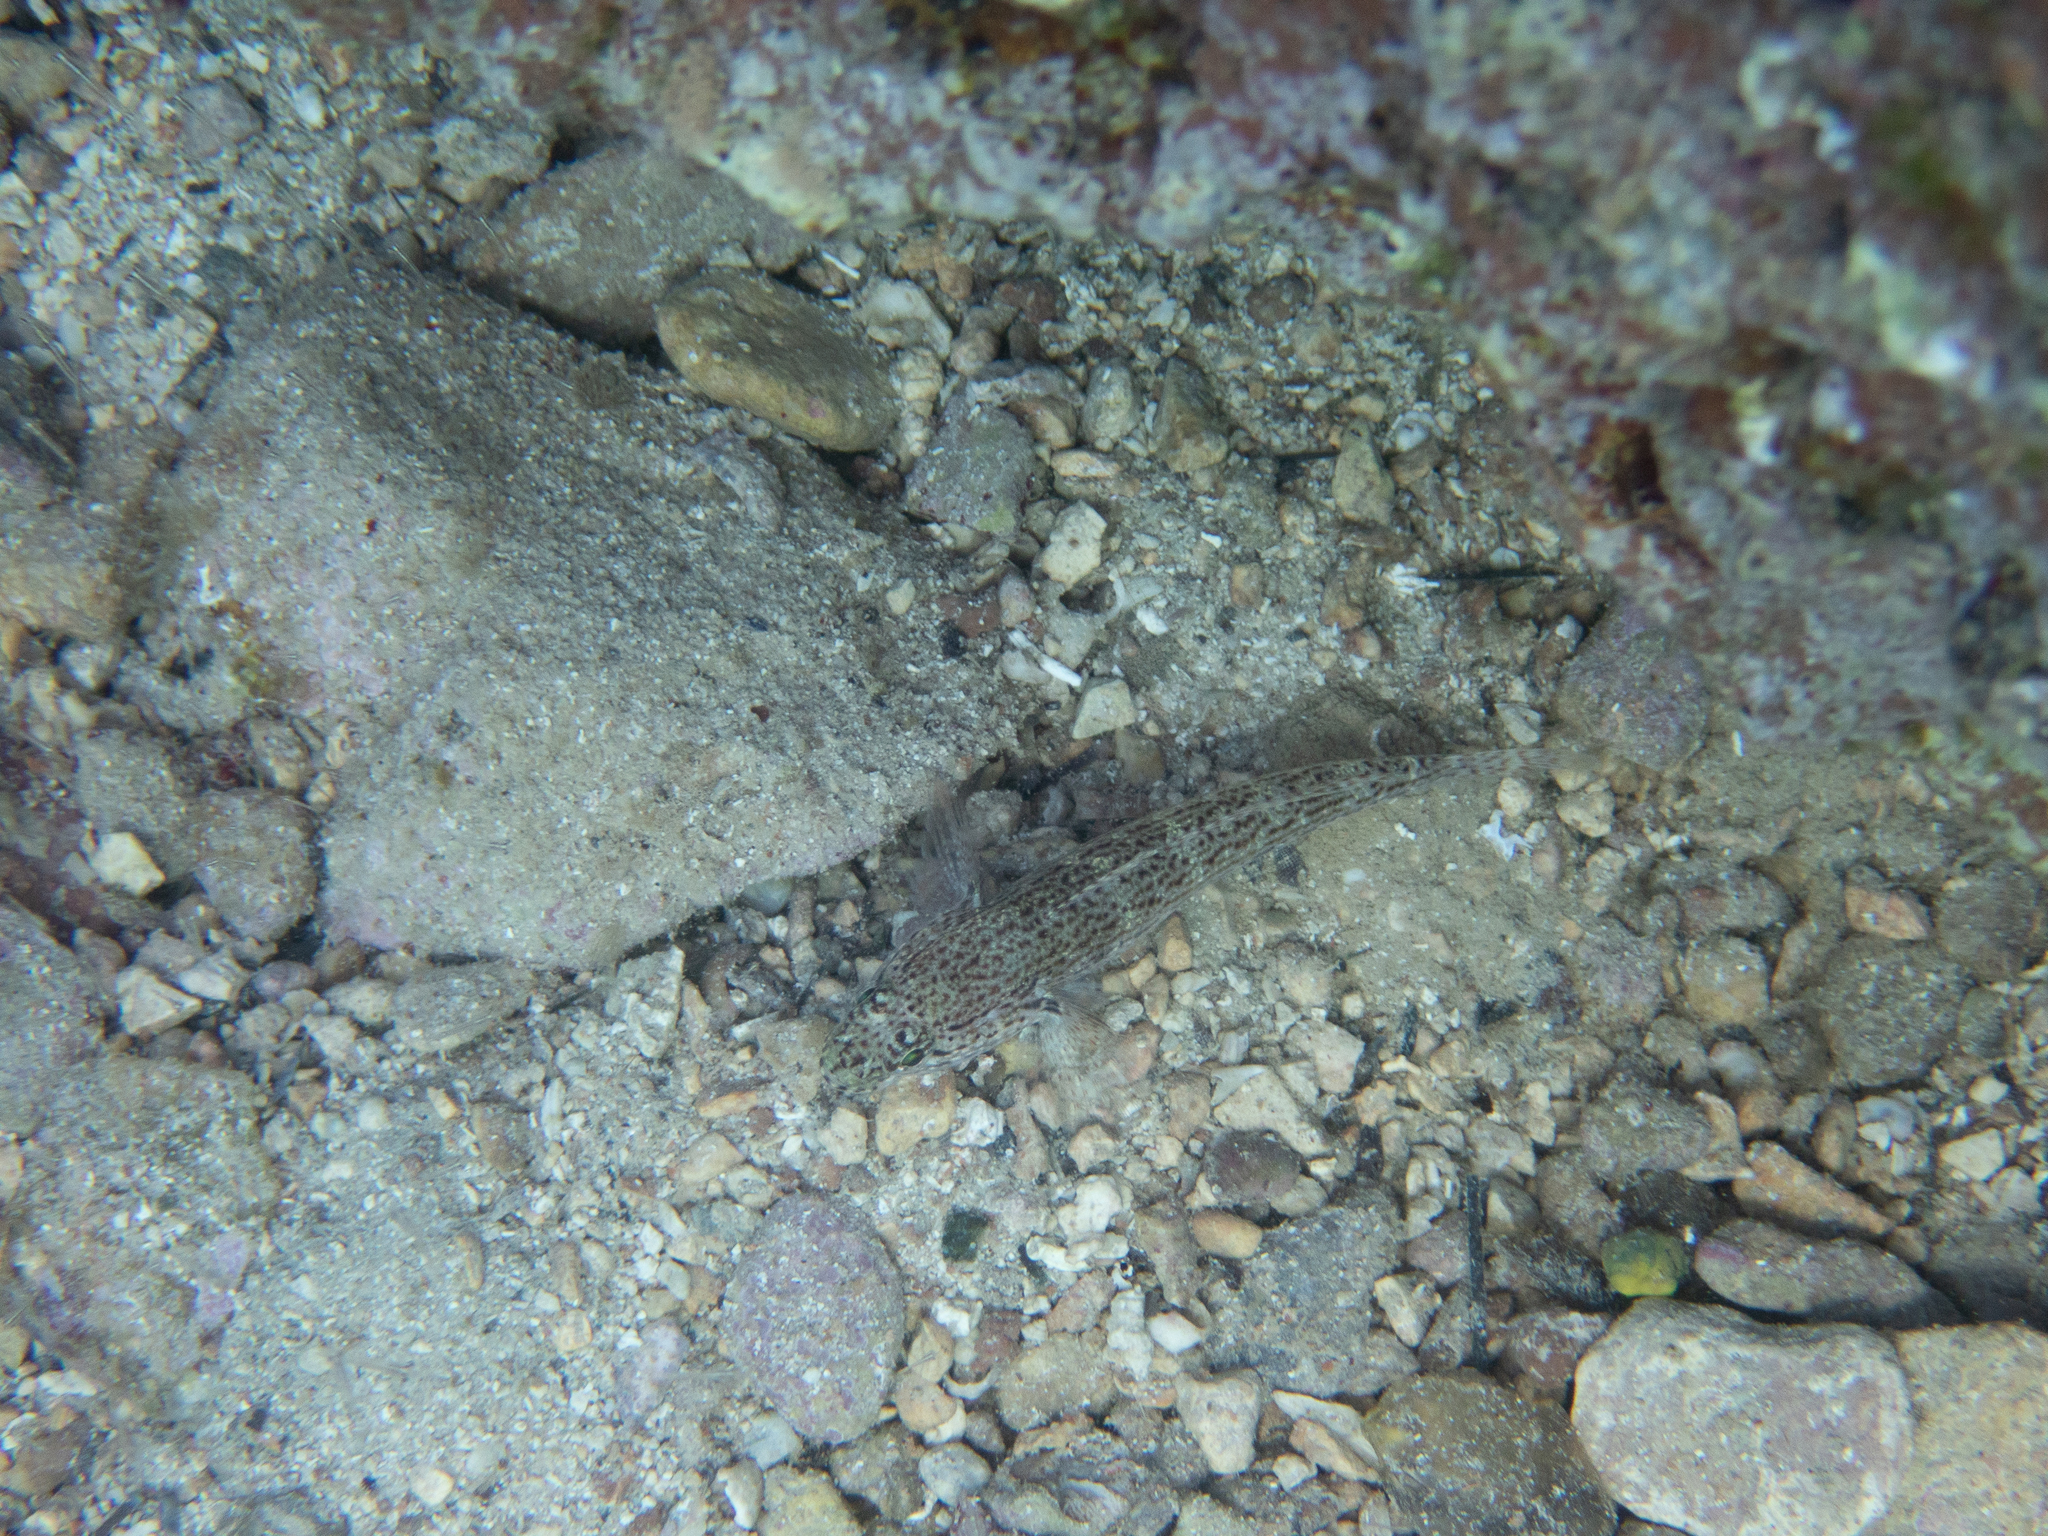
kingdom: Animalia
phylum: Chordata
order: Perciformes
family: Gobiidae
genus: Gobius
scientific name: Gobius fallax
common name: Sarato's goby
